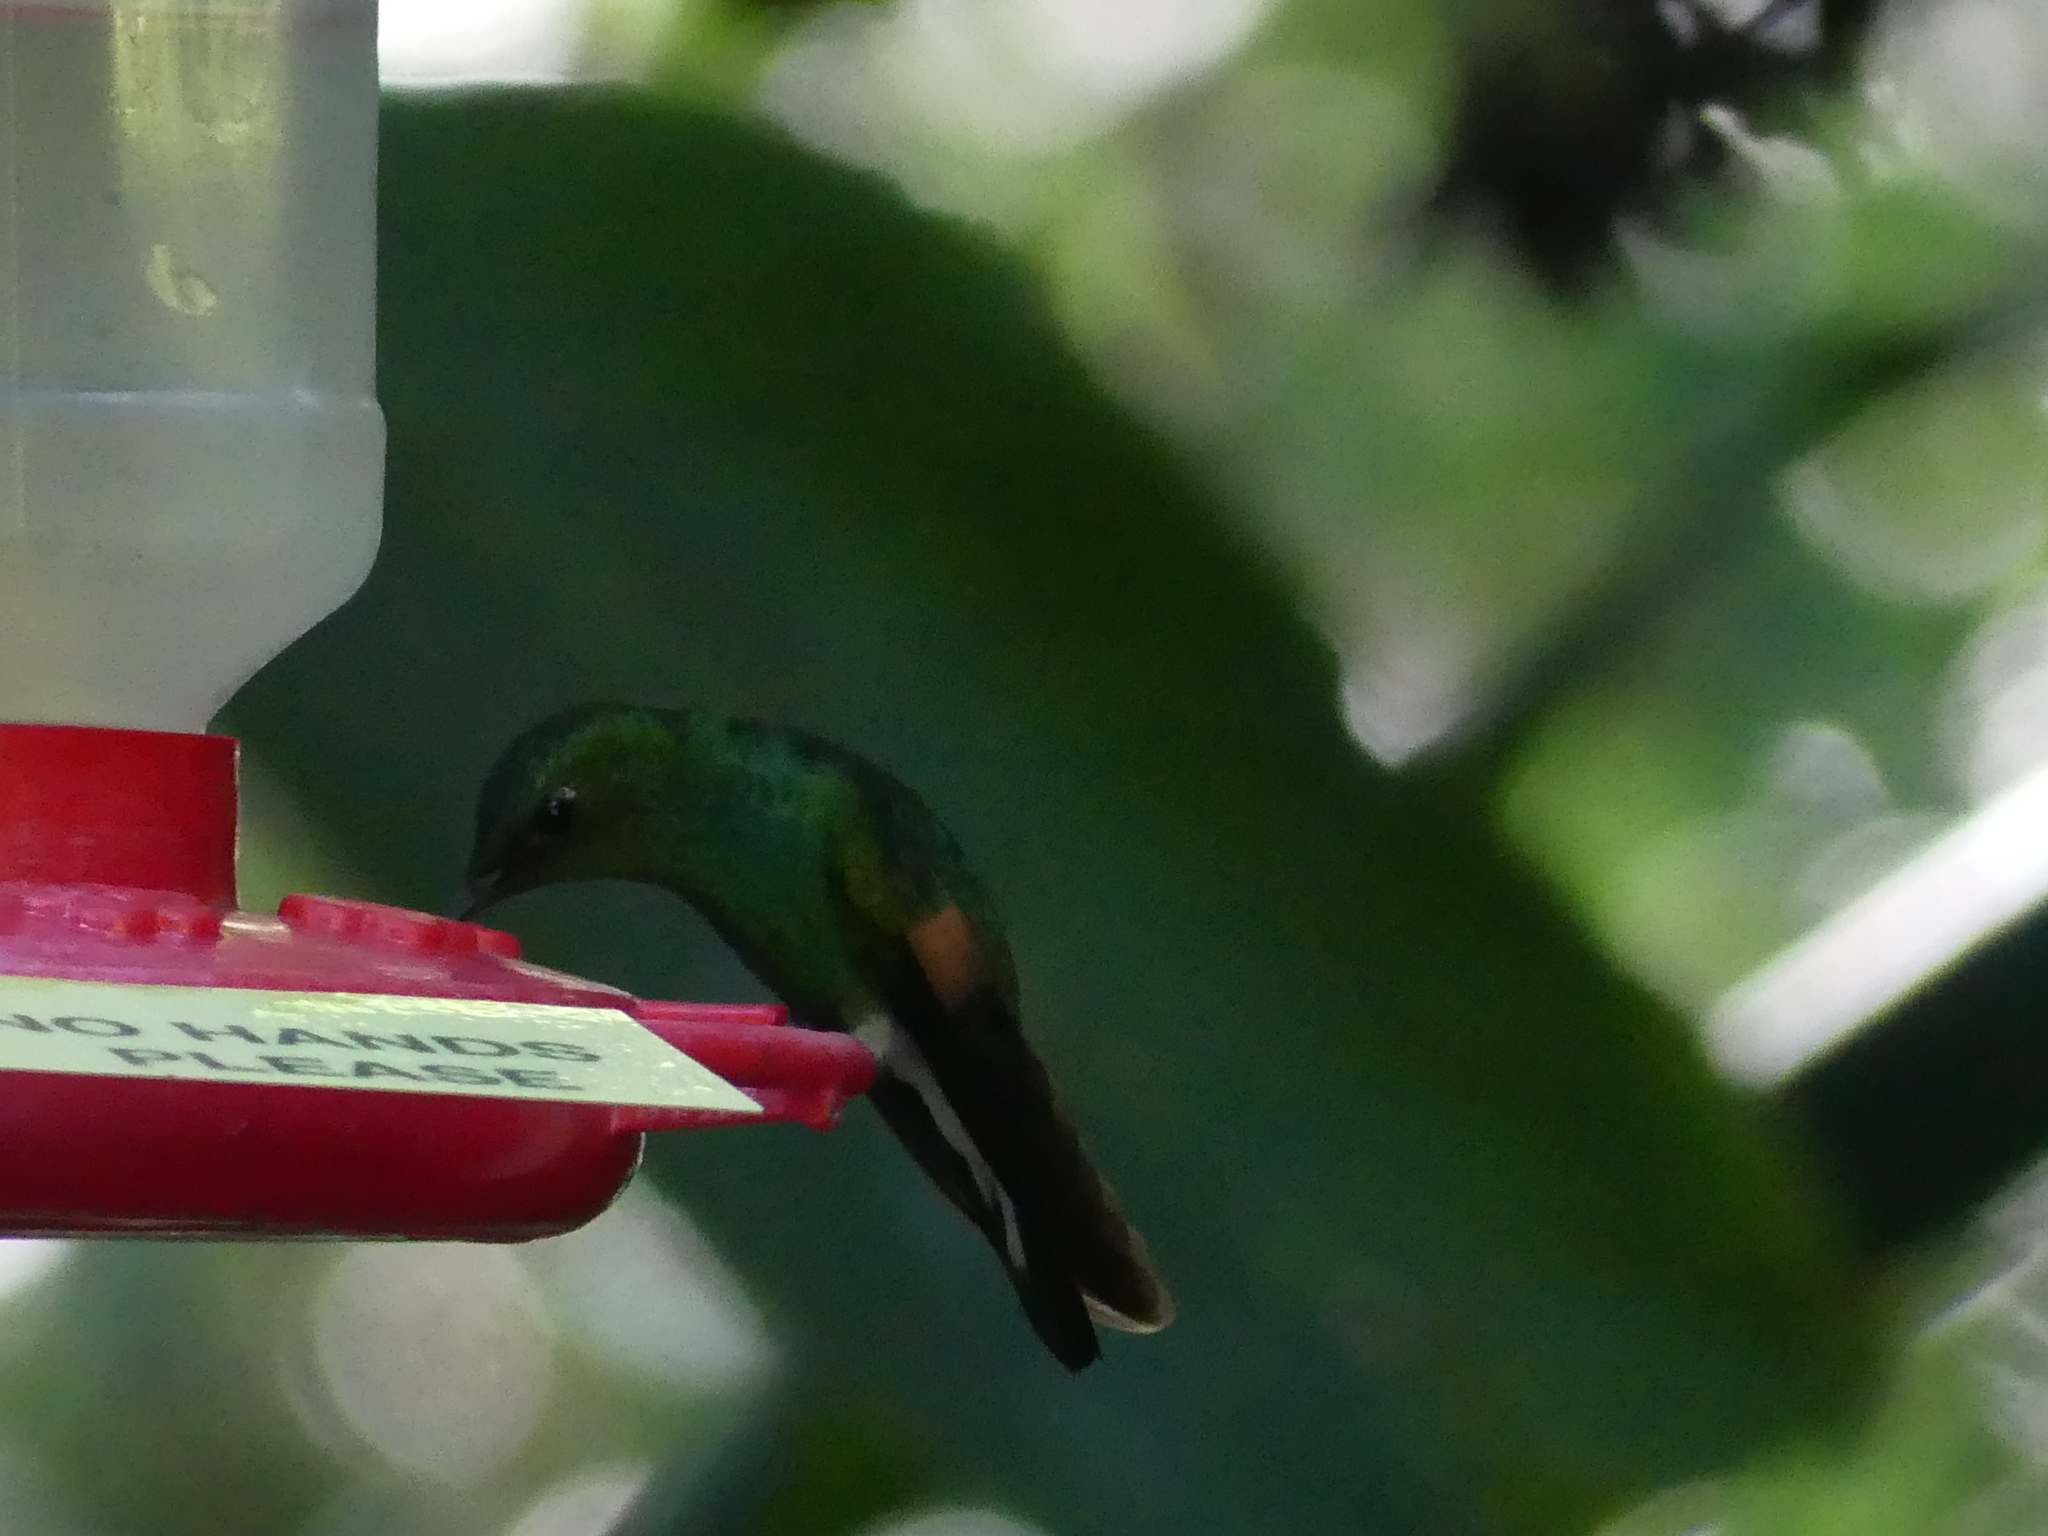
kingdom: Animalia
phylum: Chordata
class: Aves
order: Apodiformes
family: Trochilidae
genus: Eupherusa
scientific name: Eupherusa eximia
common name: Stripe-tailed hummingbird
